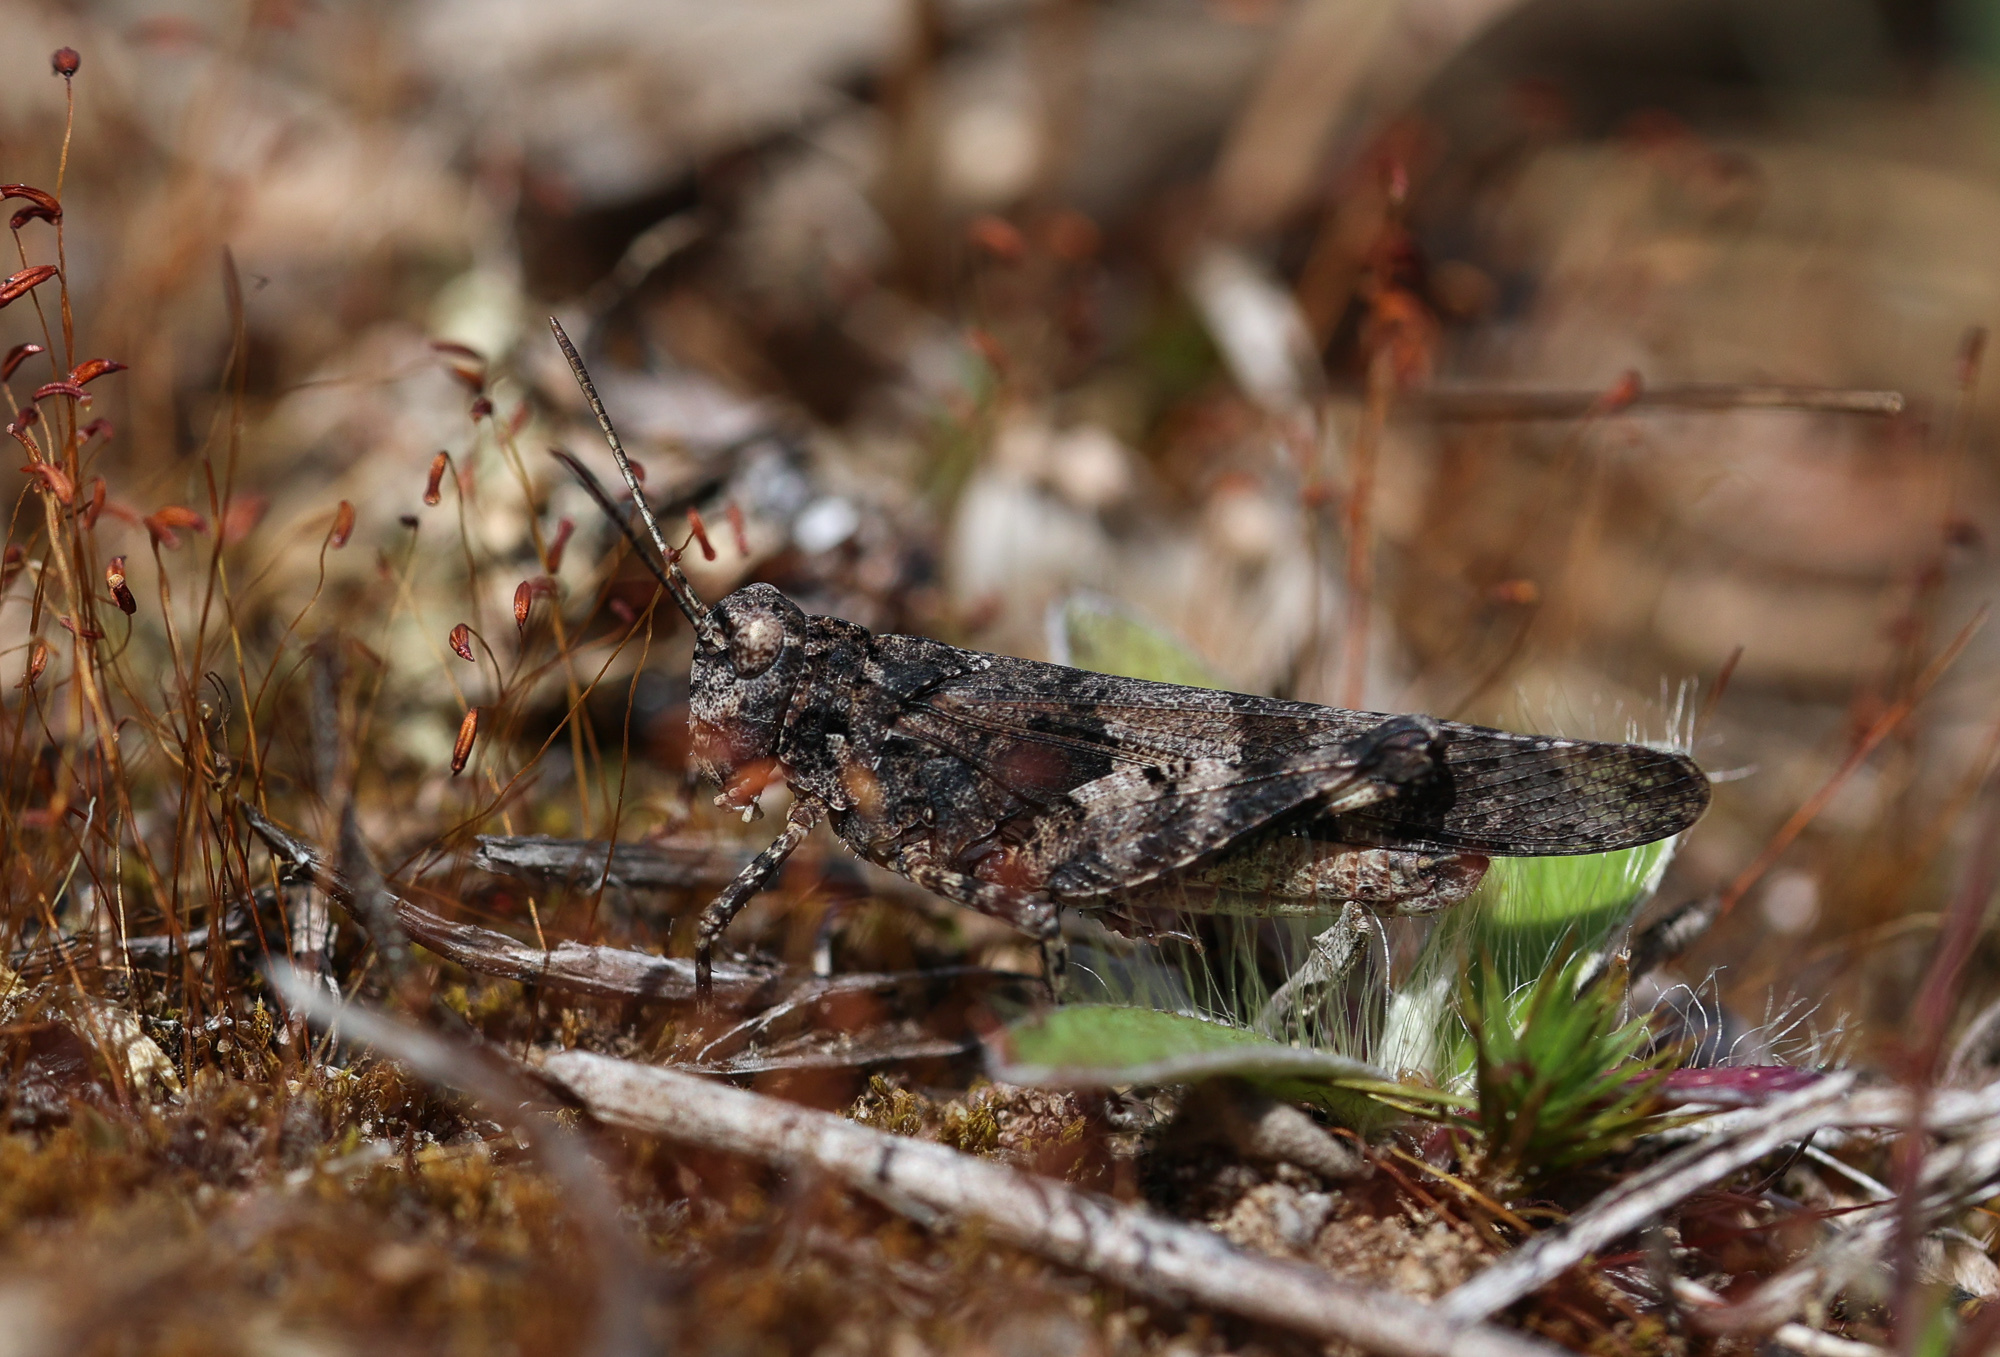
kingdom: Animalia
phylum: Arthropoda
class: Insecta
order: Orthoptera
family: Acrididae
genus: Oedipoda
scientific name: Oedipoda caerulescens
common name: Blue-winged grasshopper
